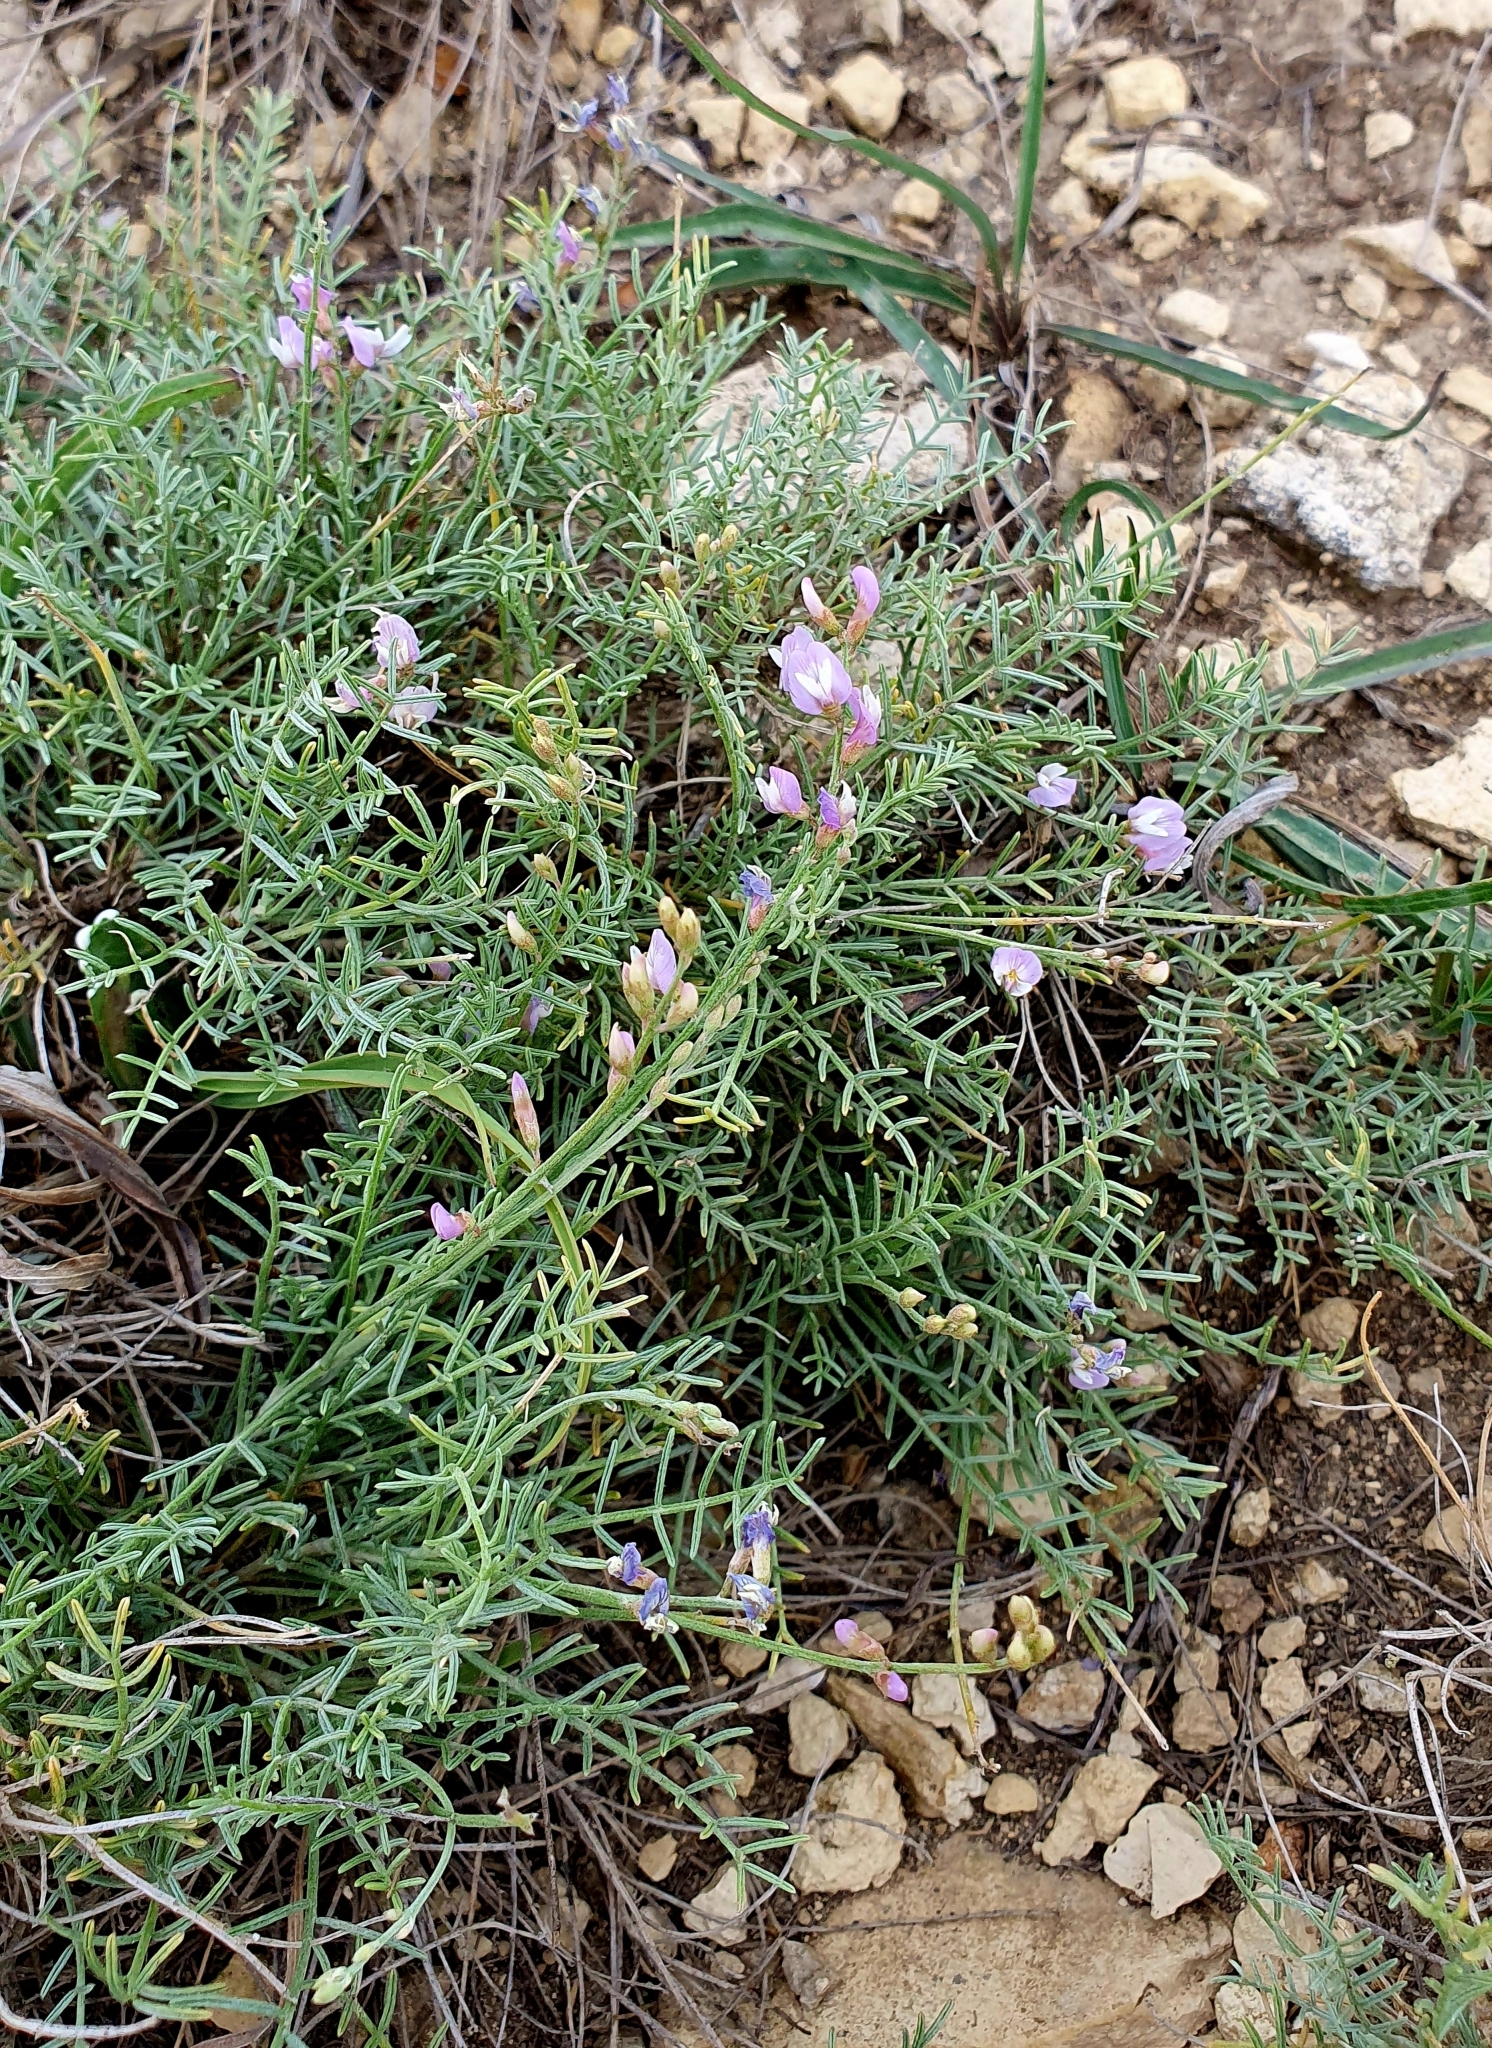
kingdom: Plantae
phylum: Tracheophyta
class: Magnoliopsida
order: Fabales
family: Fabaceae
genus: Astragalus
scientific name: Astragalus
